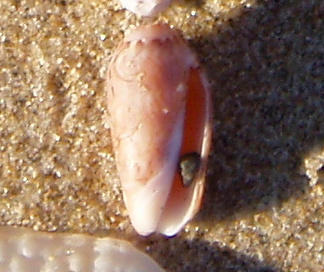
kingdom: Animalia
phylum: Mollusca
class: Gastropoda
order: Neogastropoda
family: Olividae
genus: Oliva
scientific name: Oliva spicata
